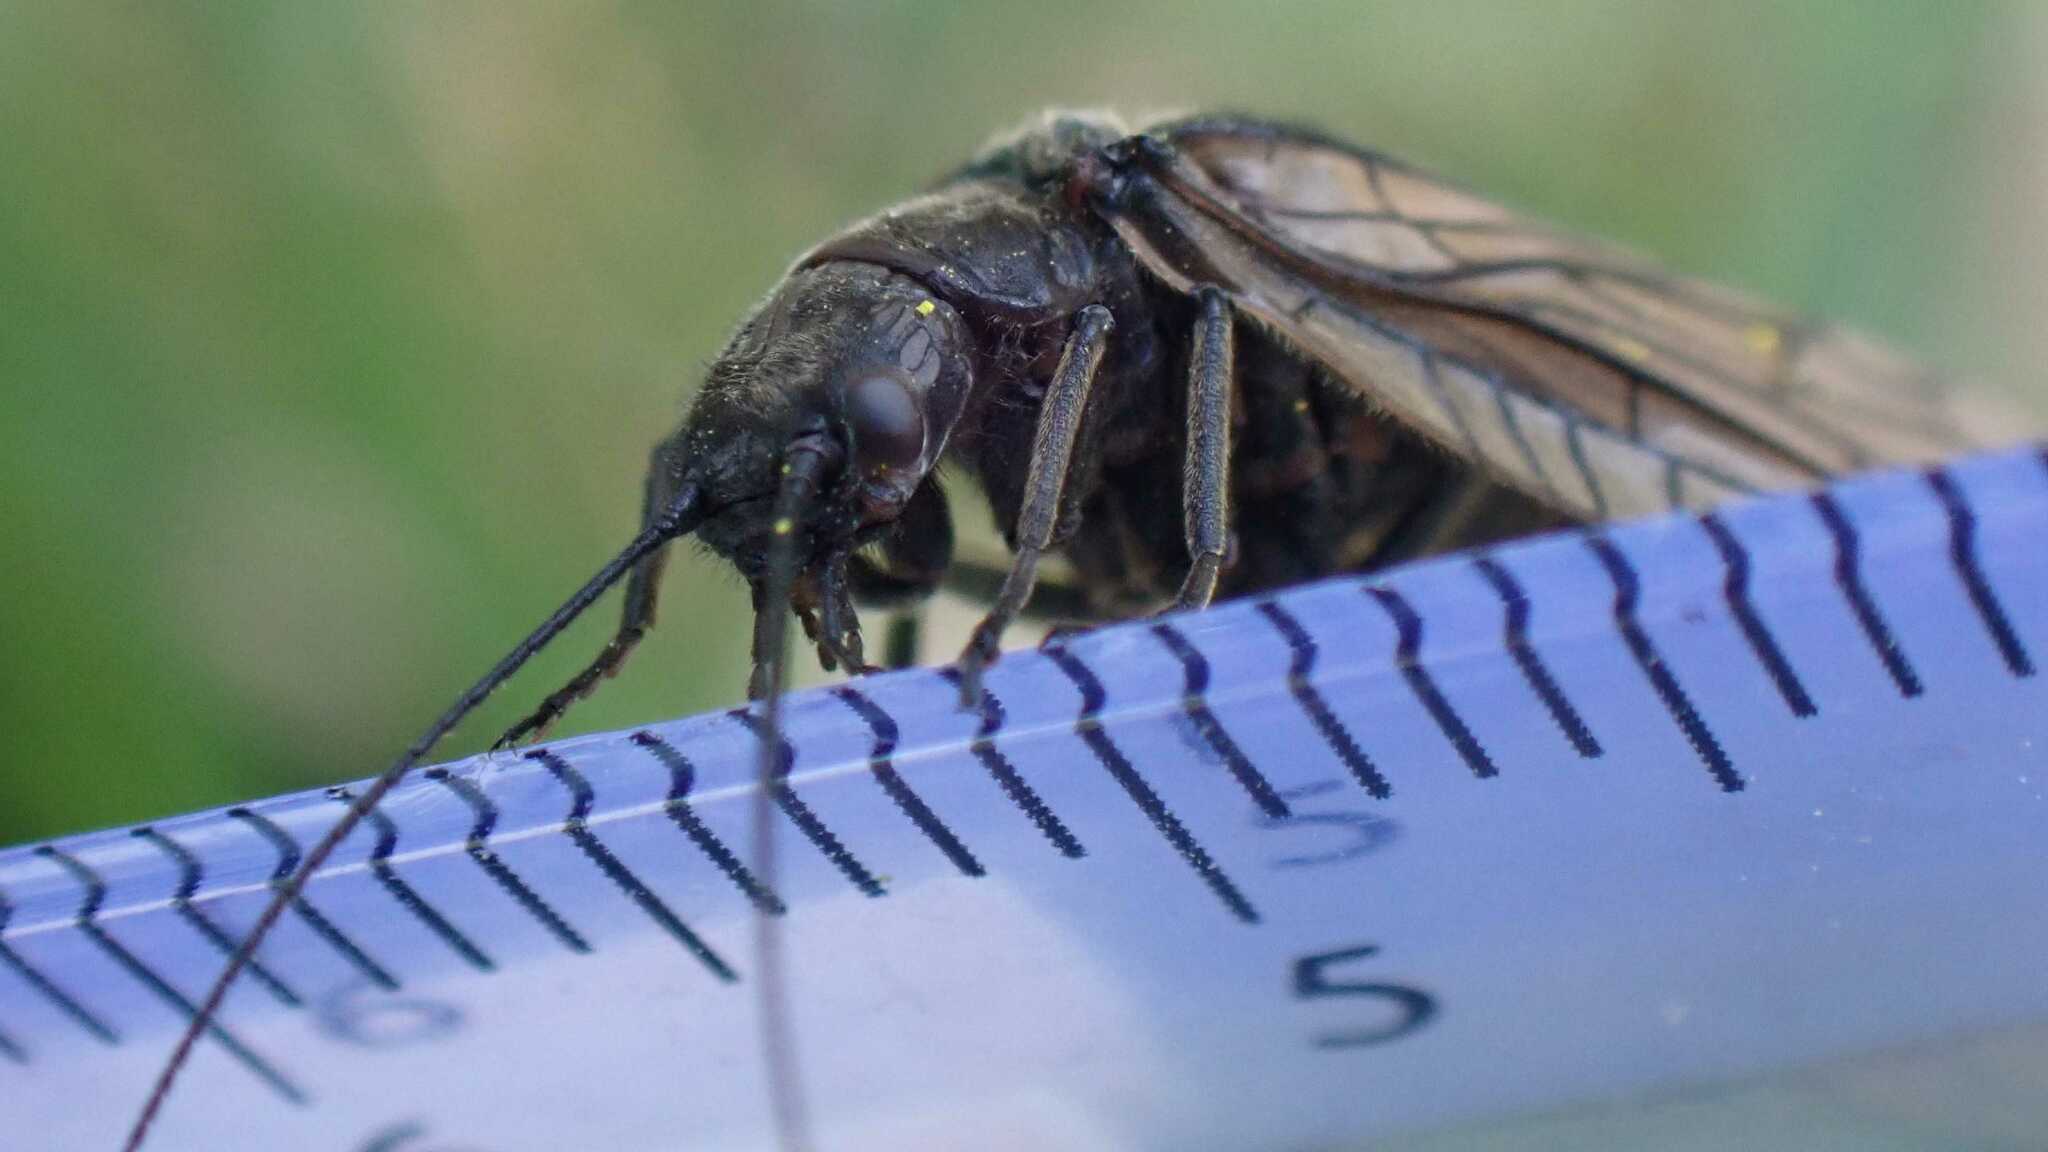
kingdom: Animalia
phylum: Arthropoda
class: Insecta
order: Megaloptera
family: Sialidae
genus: Sialis
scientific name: Sialis
